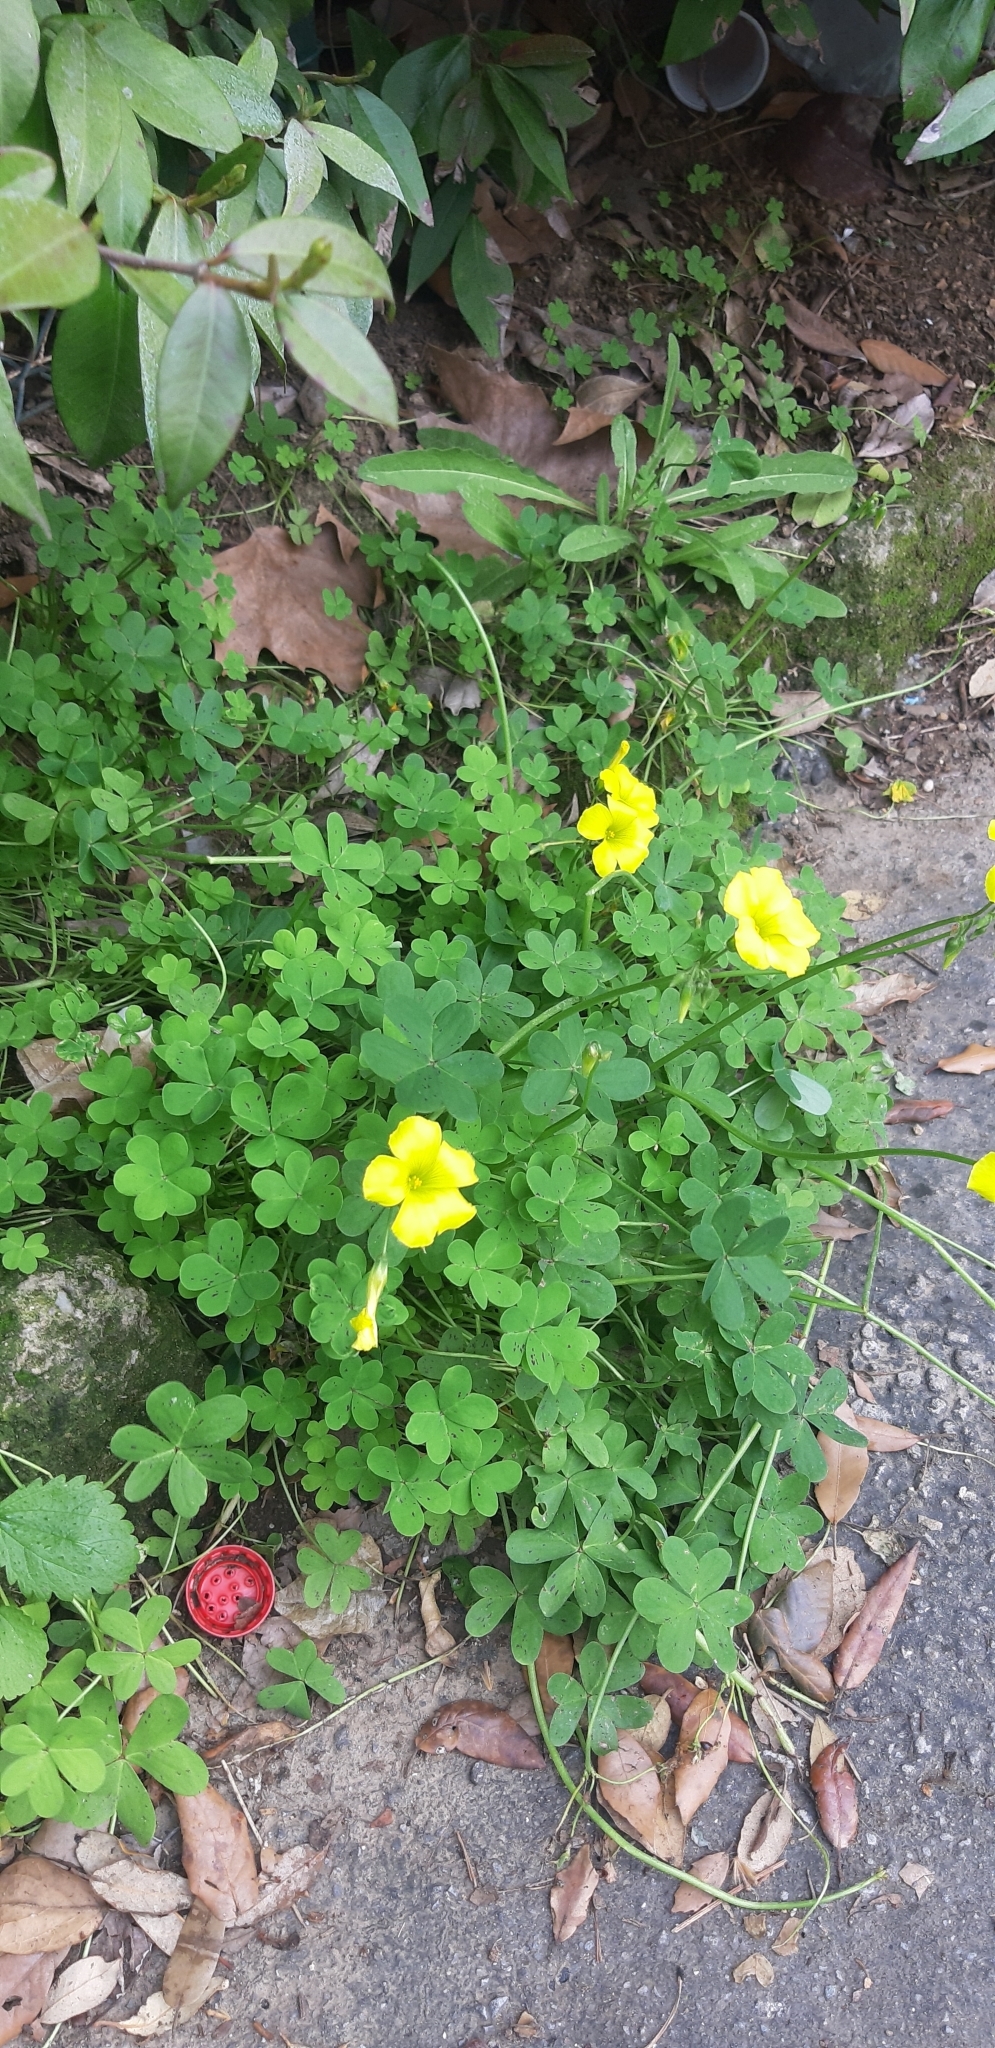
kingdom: Plantae
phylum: Tracheophyta
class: Magnoliopsida
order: Oxalidales
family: Oxalidaceae
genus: Oxalis
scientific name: Oxalis pes-caprae
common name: Bermuda-buttercup
